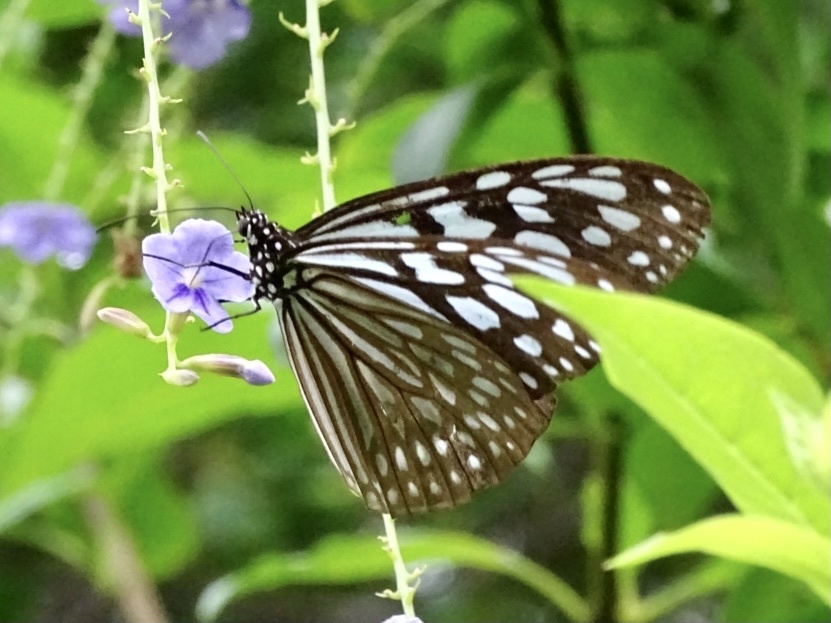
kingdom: Animalia
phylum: Arthropoda
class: Insecta
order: Lepidoptera
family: Nymphalidae
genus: Ideopsis
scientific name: Ideopsis similis
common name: Ceylon blue glassy tiger
